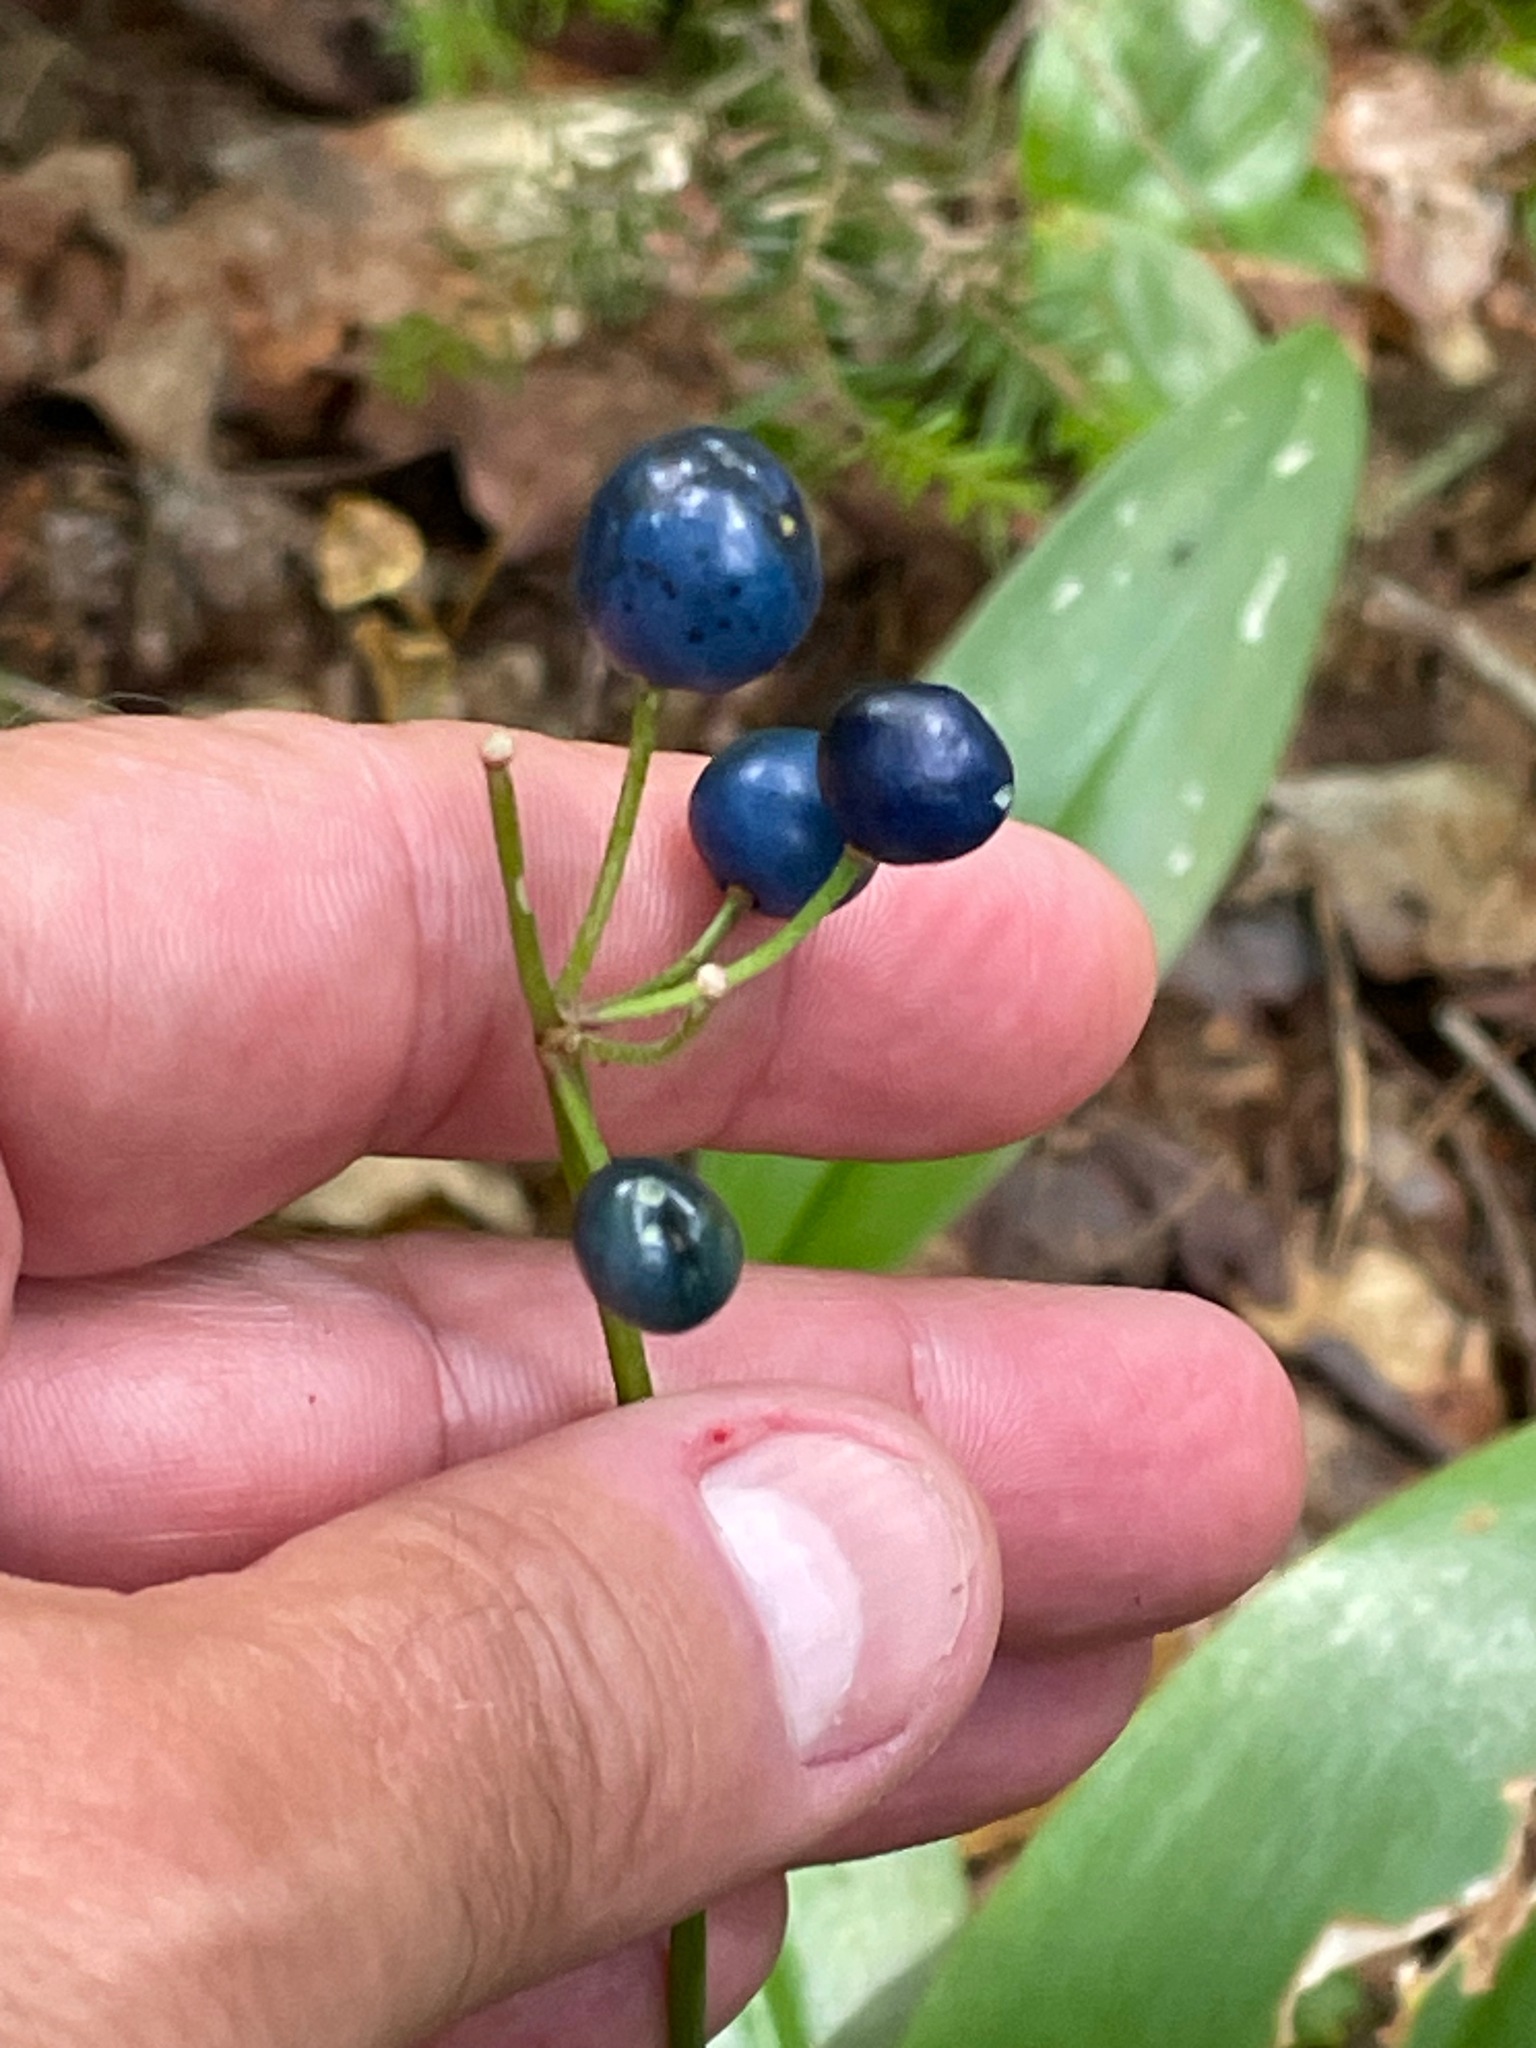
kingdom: Plantae
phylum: Tracheophyta
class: Liliopsida
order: Liliales
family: Liliaceae
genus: Clintonia
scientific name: Clintonia borealis
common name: Yellow clintonia
